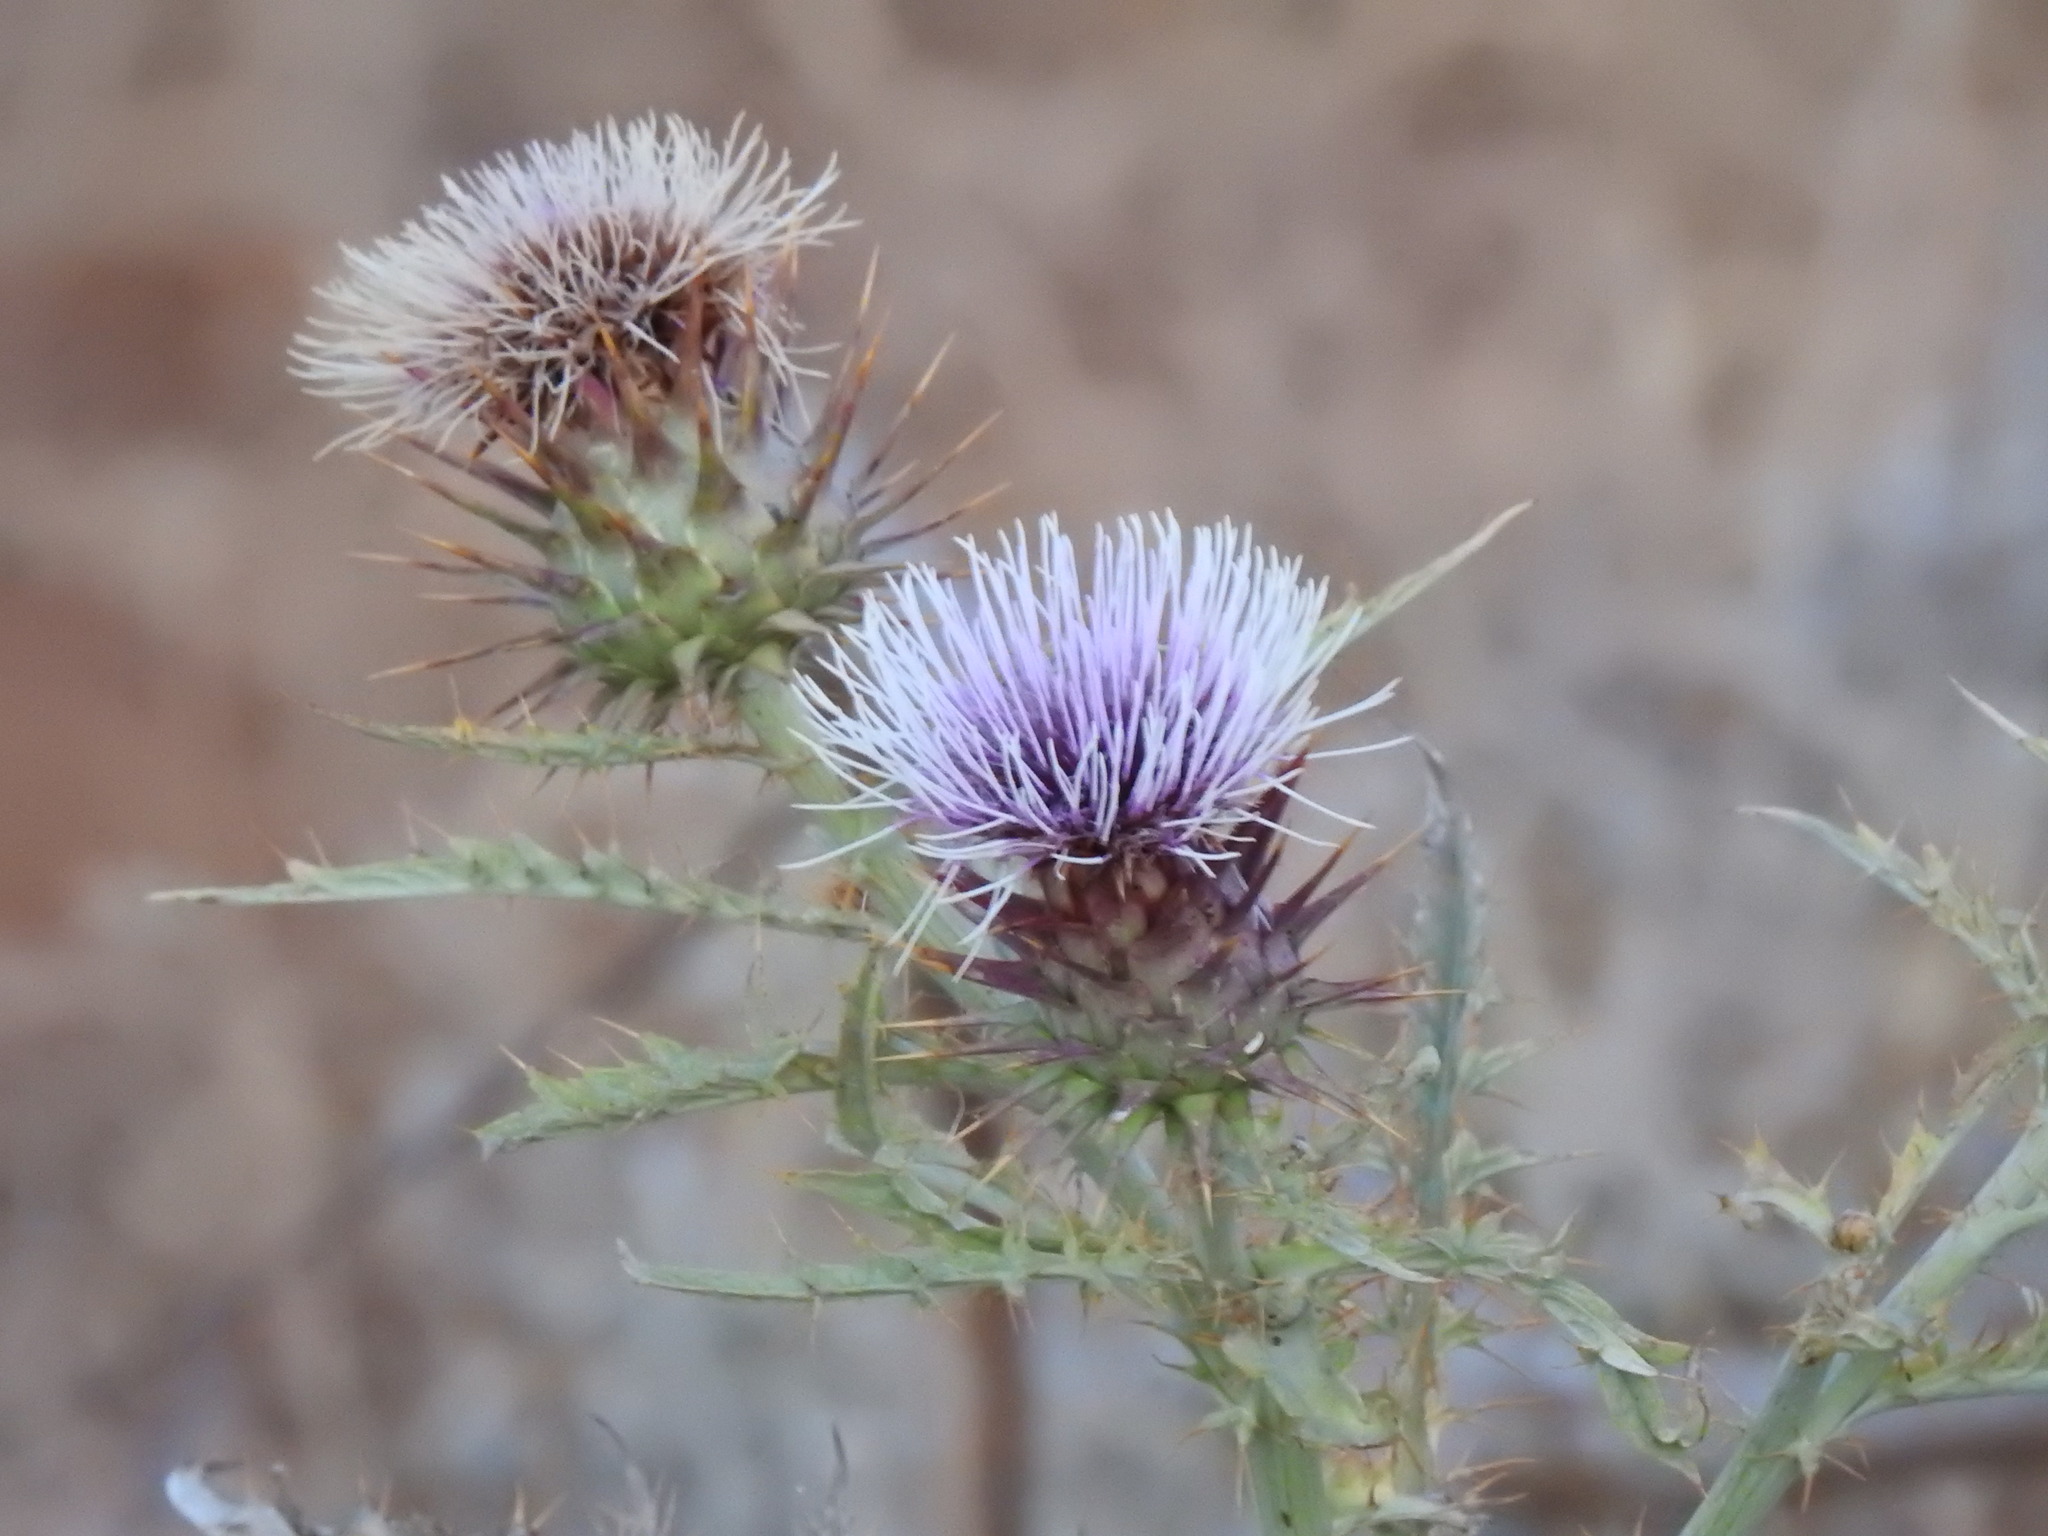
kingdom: Plantae
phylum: Tracheophyta
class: Magnoliopsida
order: Asterales
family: Asteraceae
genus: Cynara
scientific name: Cynara cardunculus
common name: Globe artichoke
